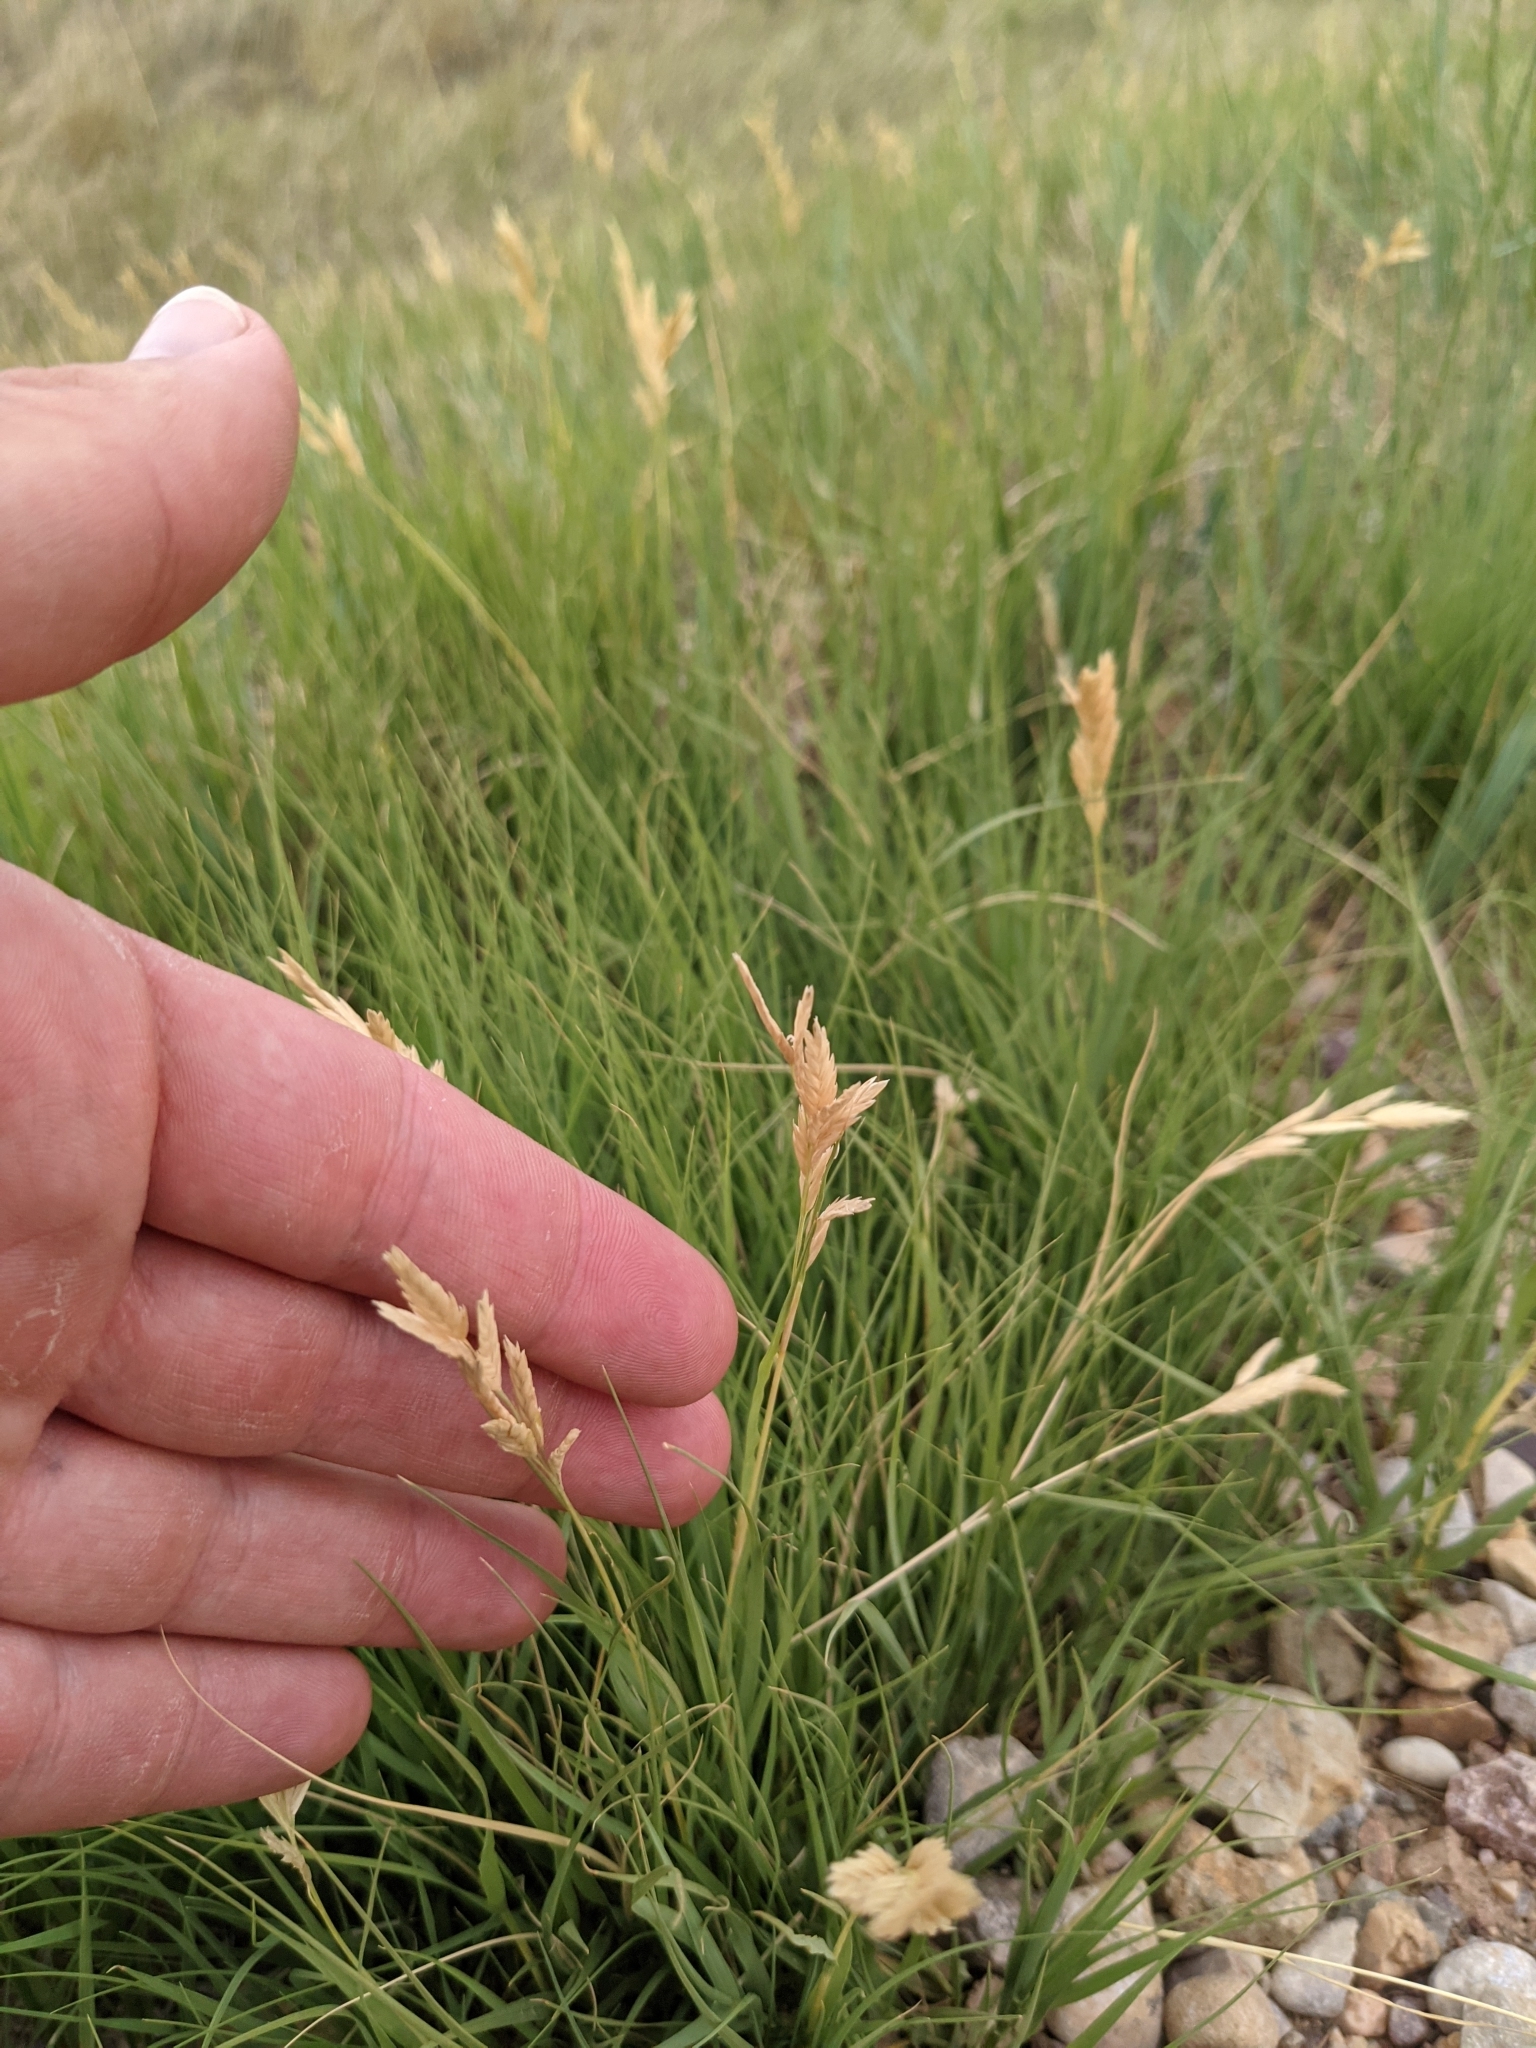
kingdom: Plantae
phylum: Tracheophyta
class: Liliopsida
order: Poales
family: Poaceae
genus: Distichlis
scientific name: Distichlis spicata
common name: Saltgrass
